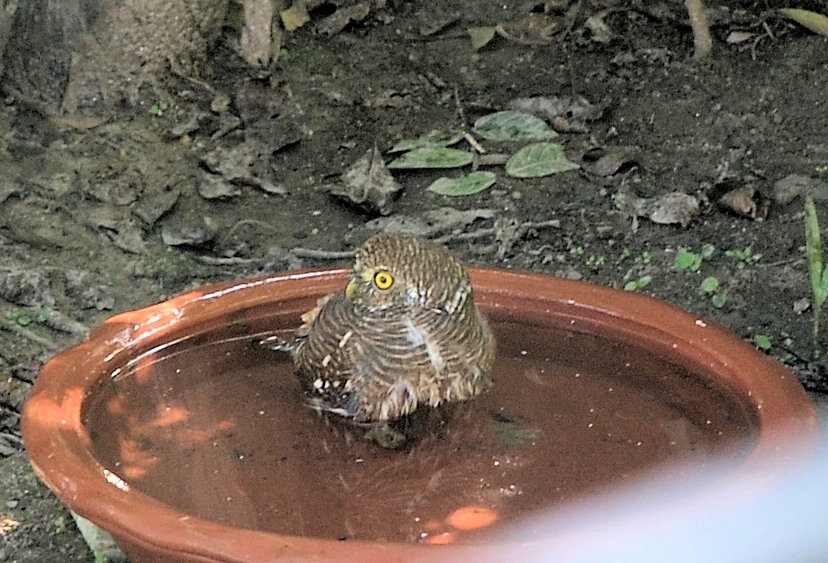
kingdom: Animalia
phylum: Chordata
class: Aves
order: Strigiformes
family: Strigidae
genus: Glaucidium
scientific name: Glaucidium cuculoides
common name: Asian barred owlet
